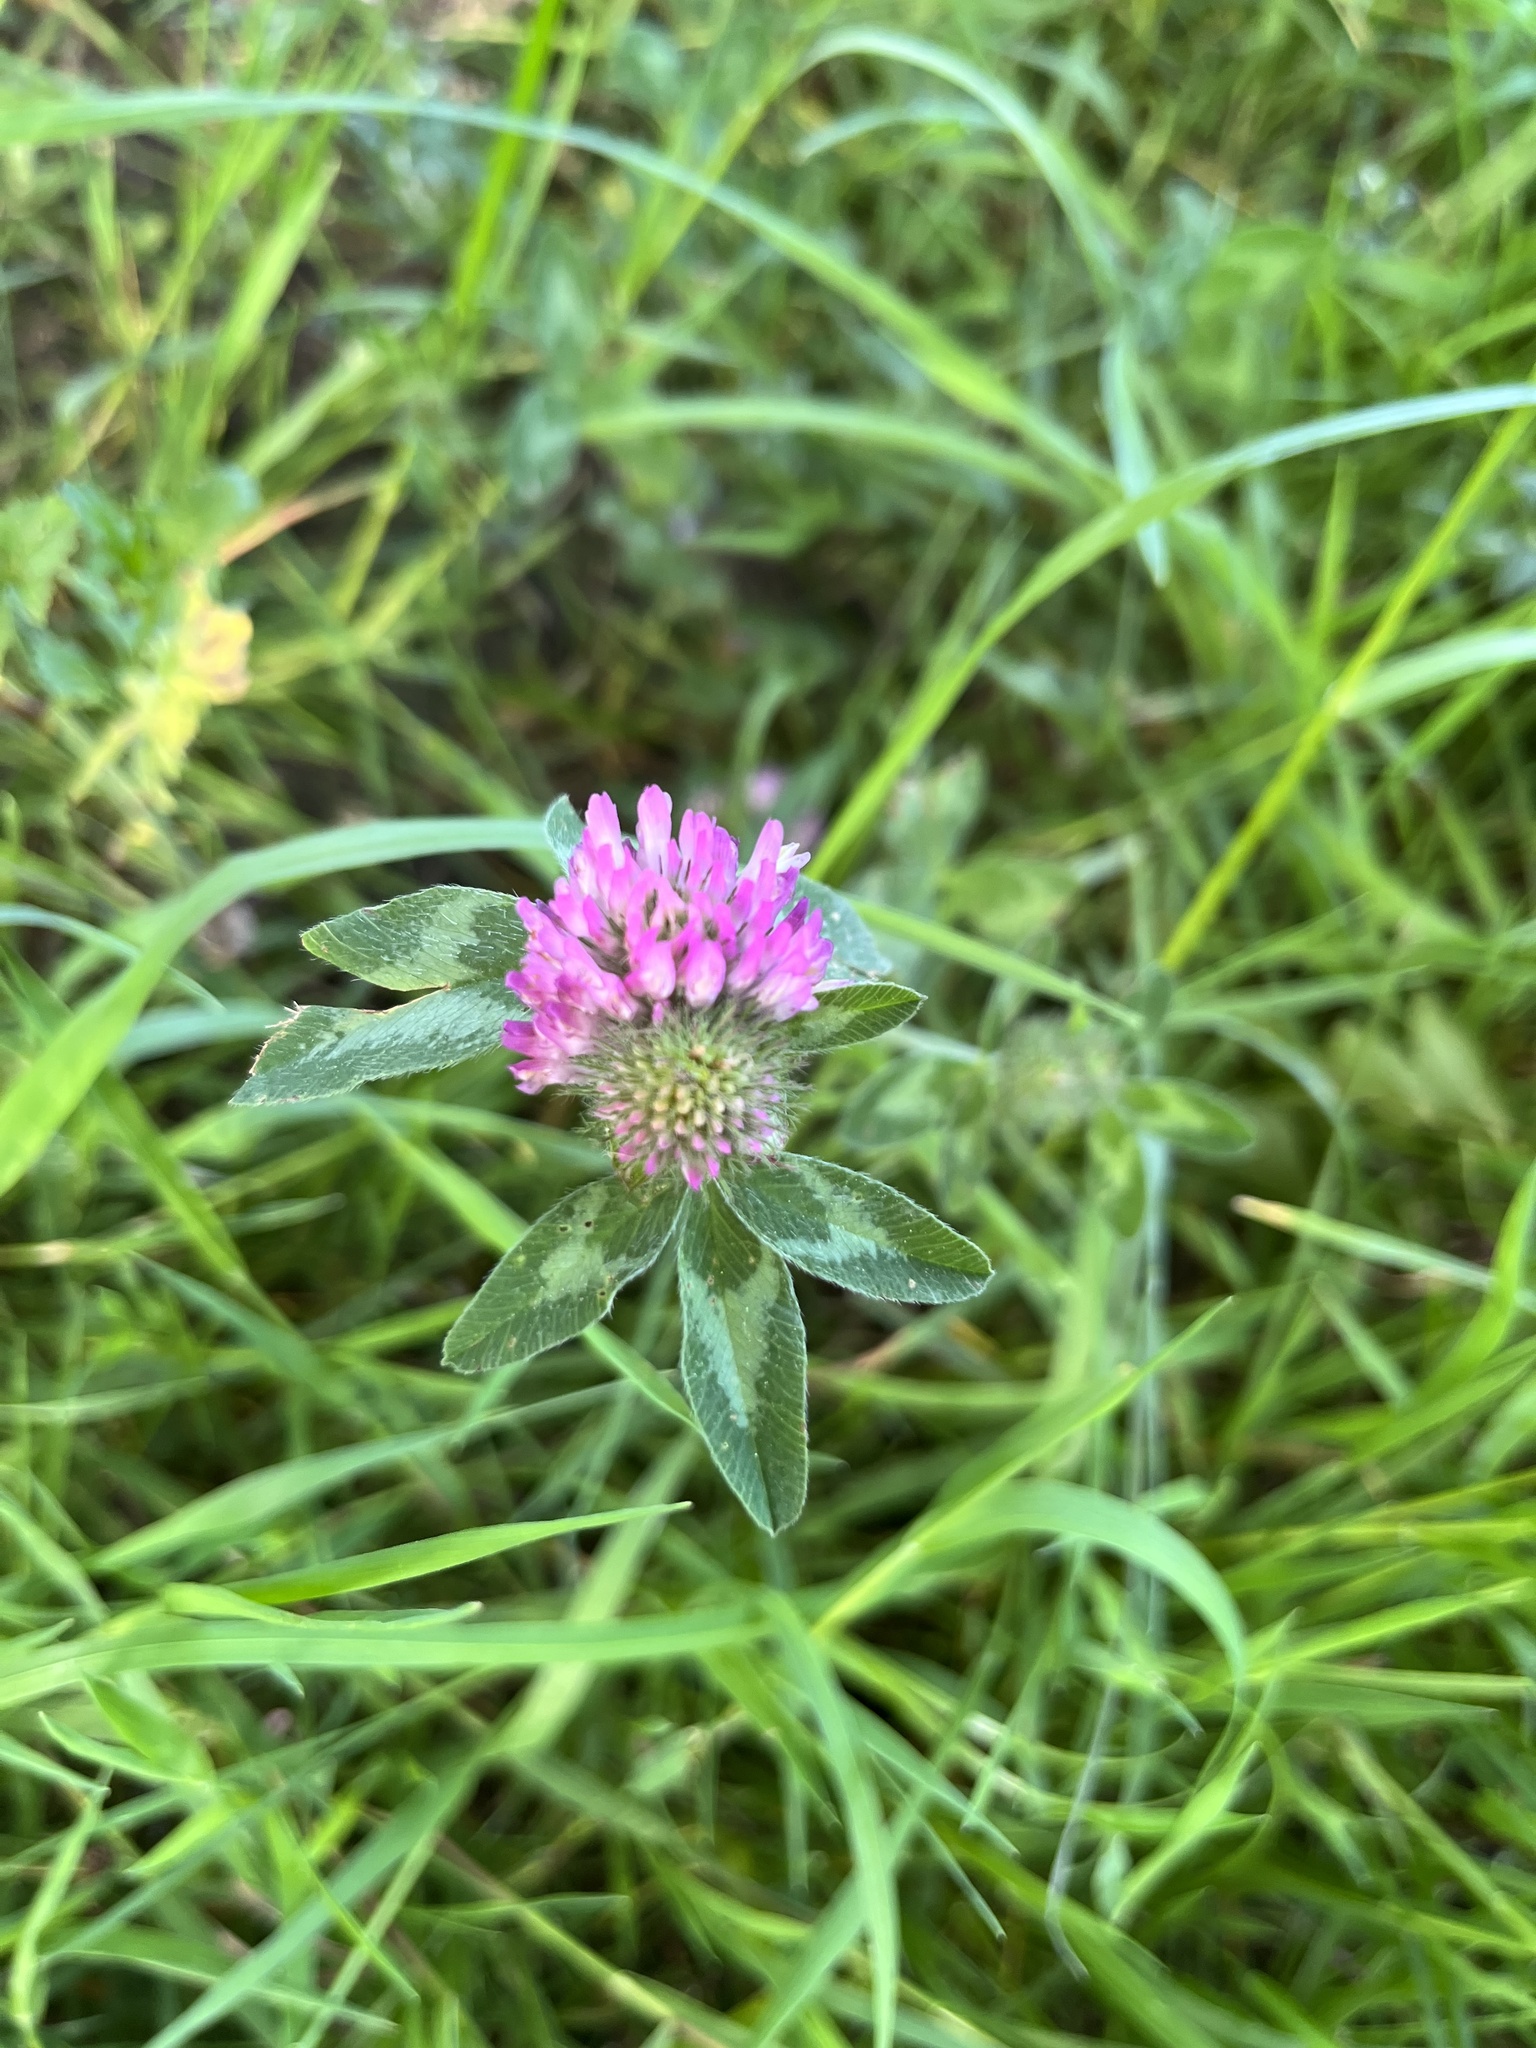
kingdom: Plantae
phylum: Tracheophyta
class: Magnoliopsida
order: Fabales
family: Fabaceae
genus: Trifolium
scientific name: Trifolium pratense
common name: Red clover
